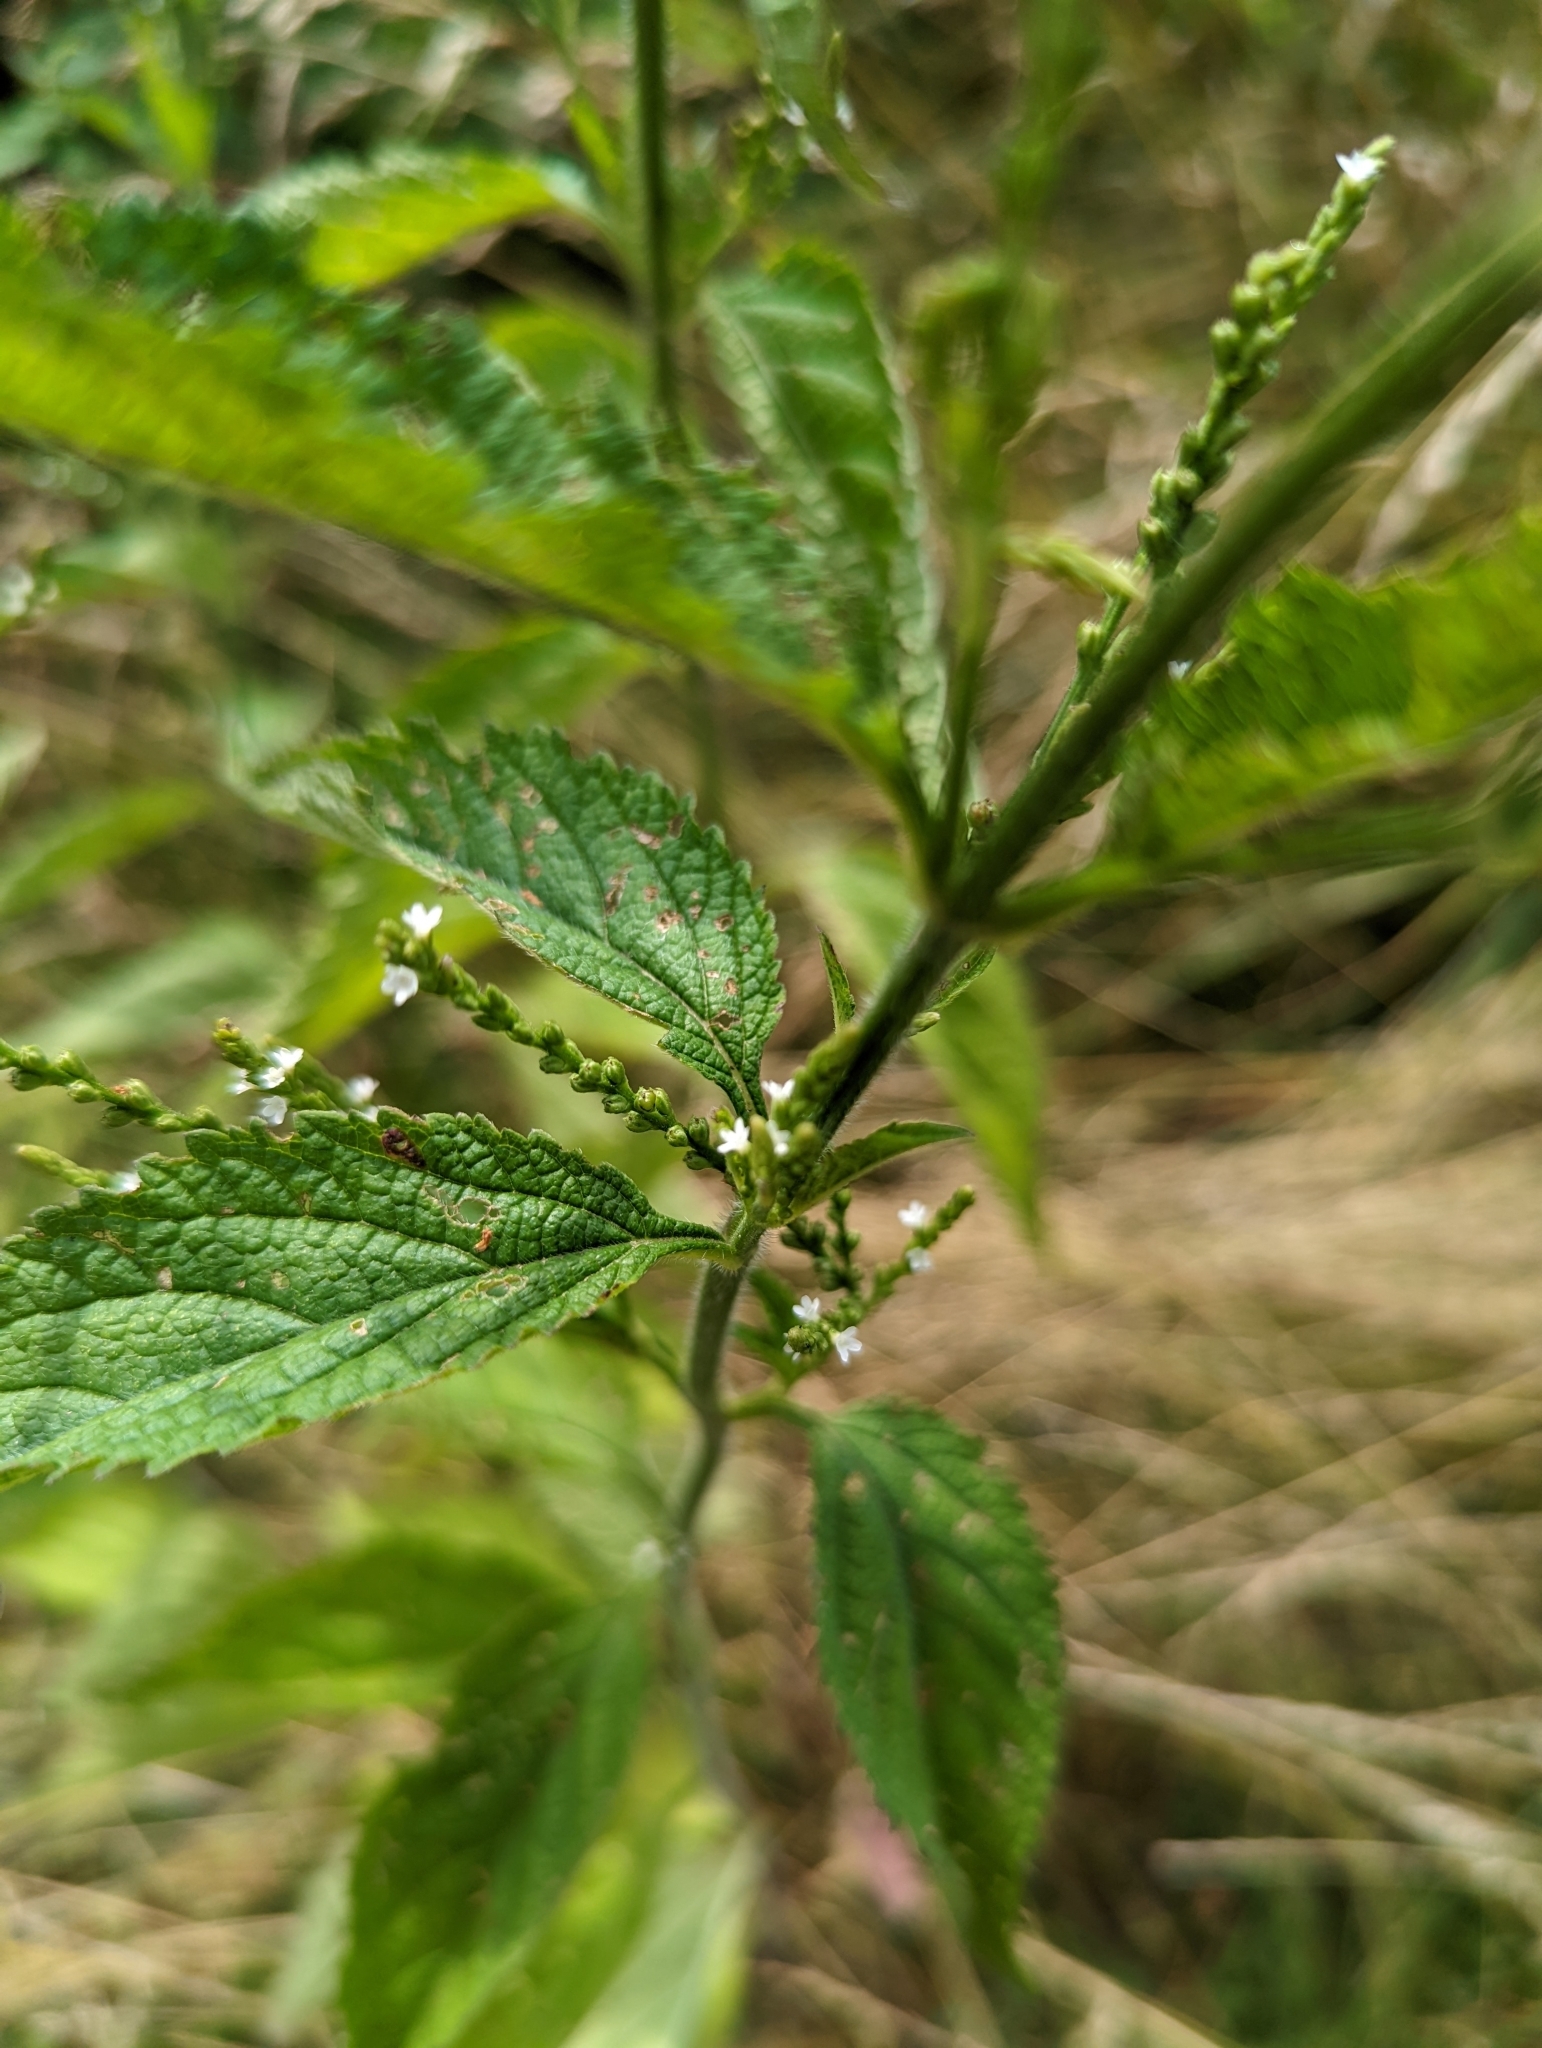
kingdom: Plantae
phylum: Tracheophyta
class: Magnoliopsida
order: Lamiales
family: Verbenaceae
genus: Verbena
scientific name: Verbena urticifolia
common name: Nettle-leaved vervain
